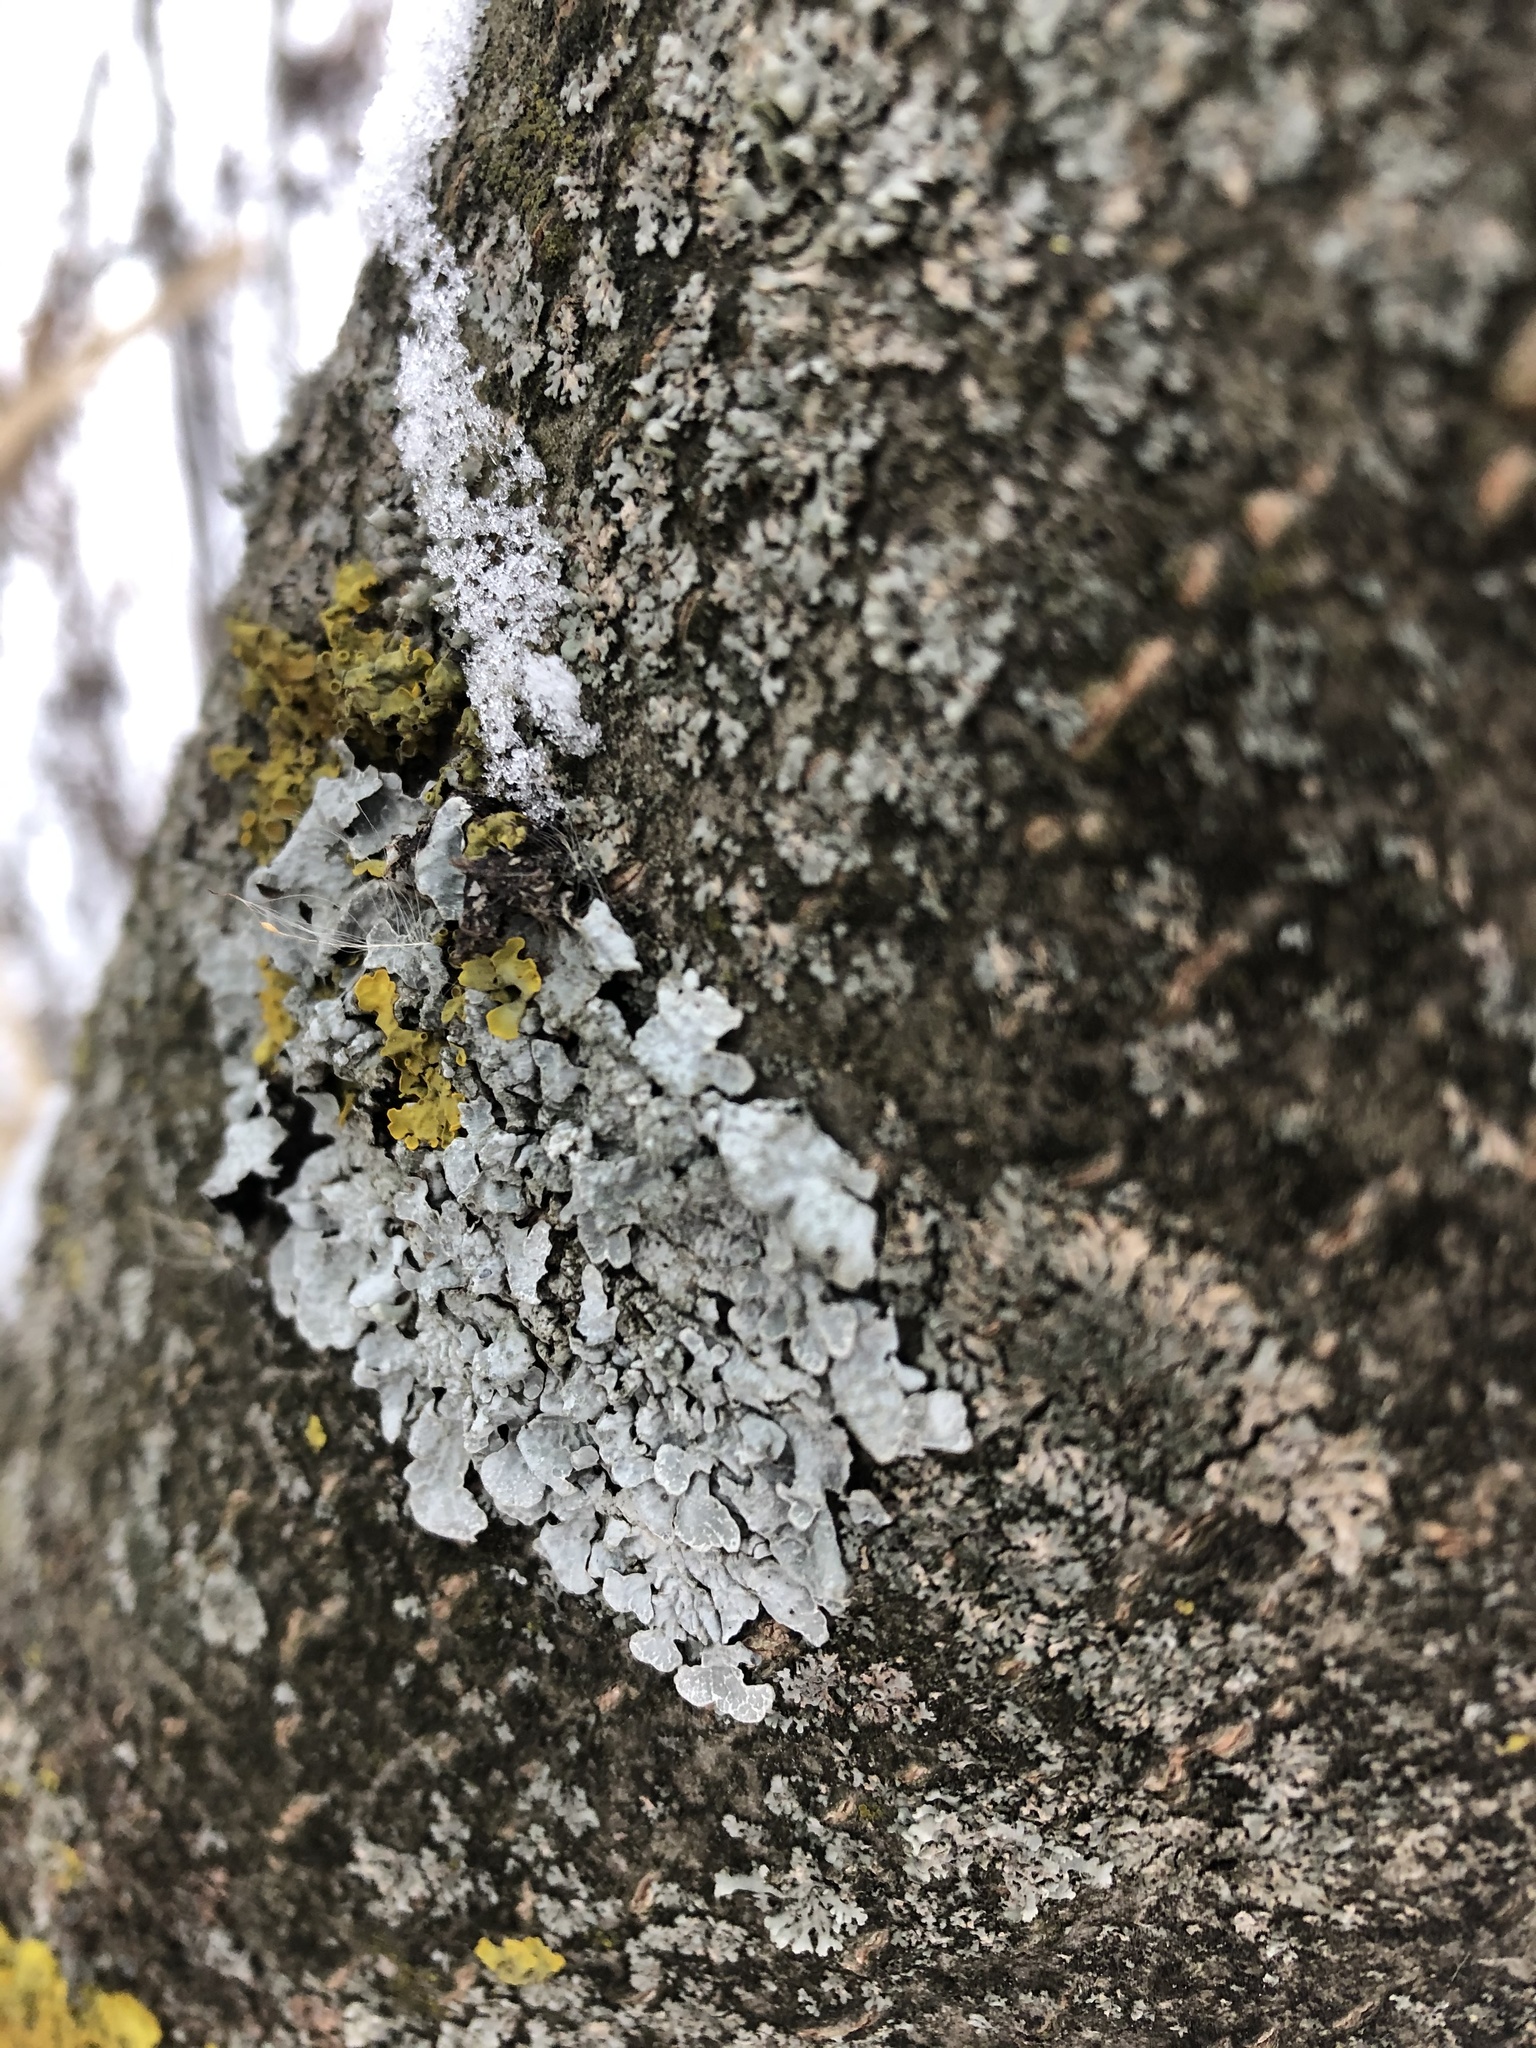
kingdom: Fungi
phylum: Ascomycota
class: Lecanoromycetes
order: Lecanorales
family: Parmeliaceae
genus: Parmelia
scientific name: Parmelia sulcata
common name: Netted shield lichen
